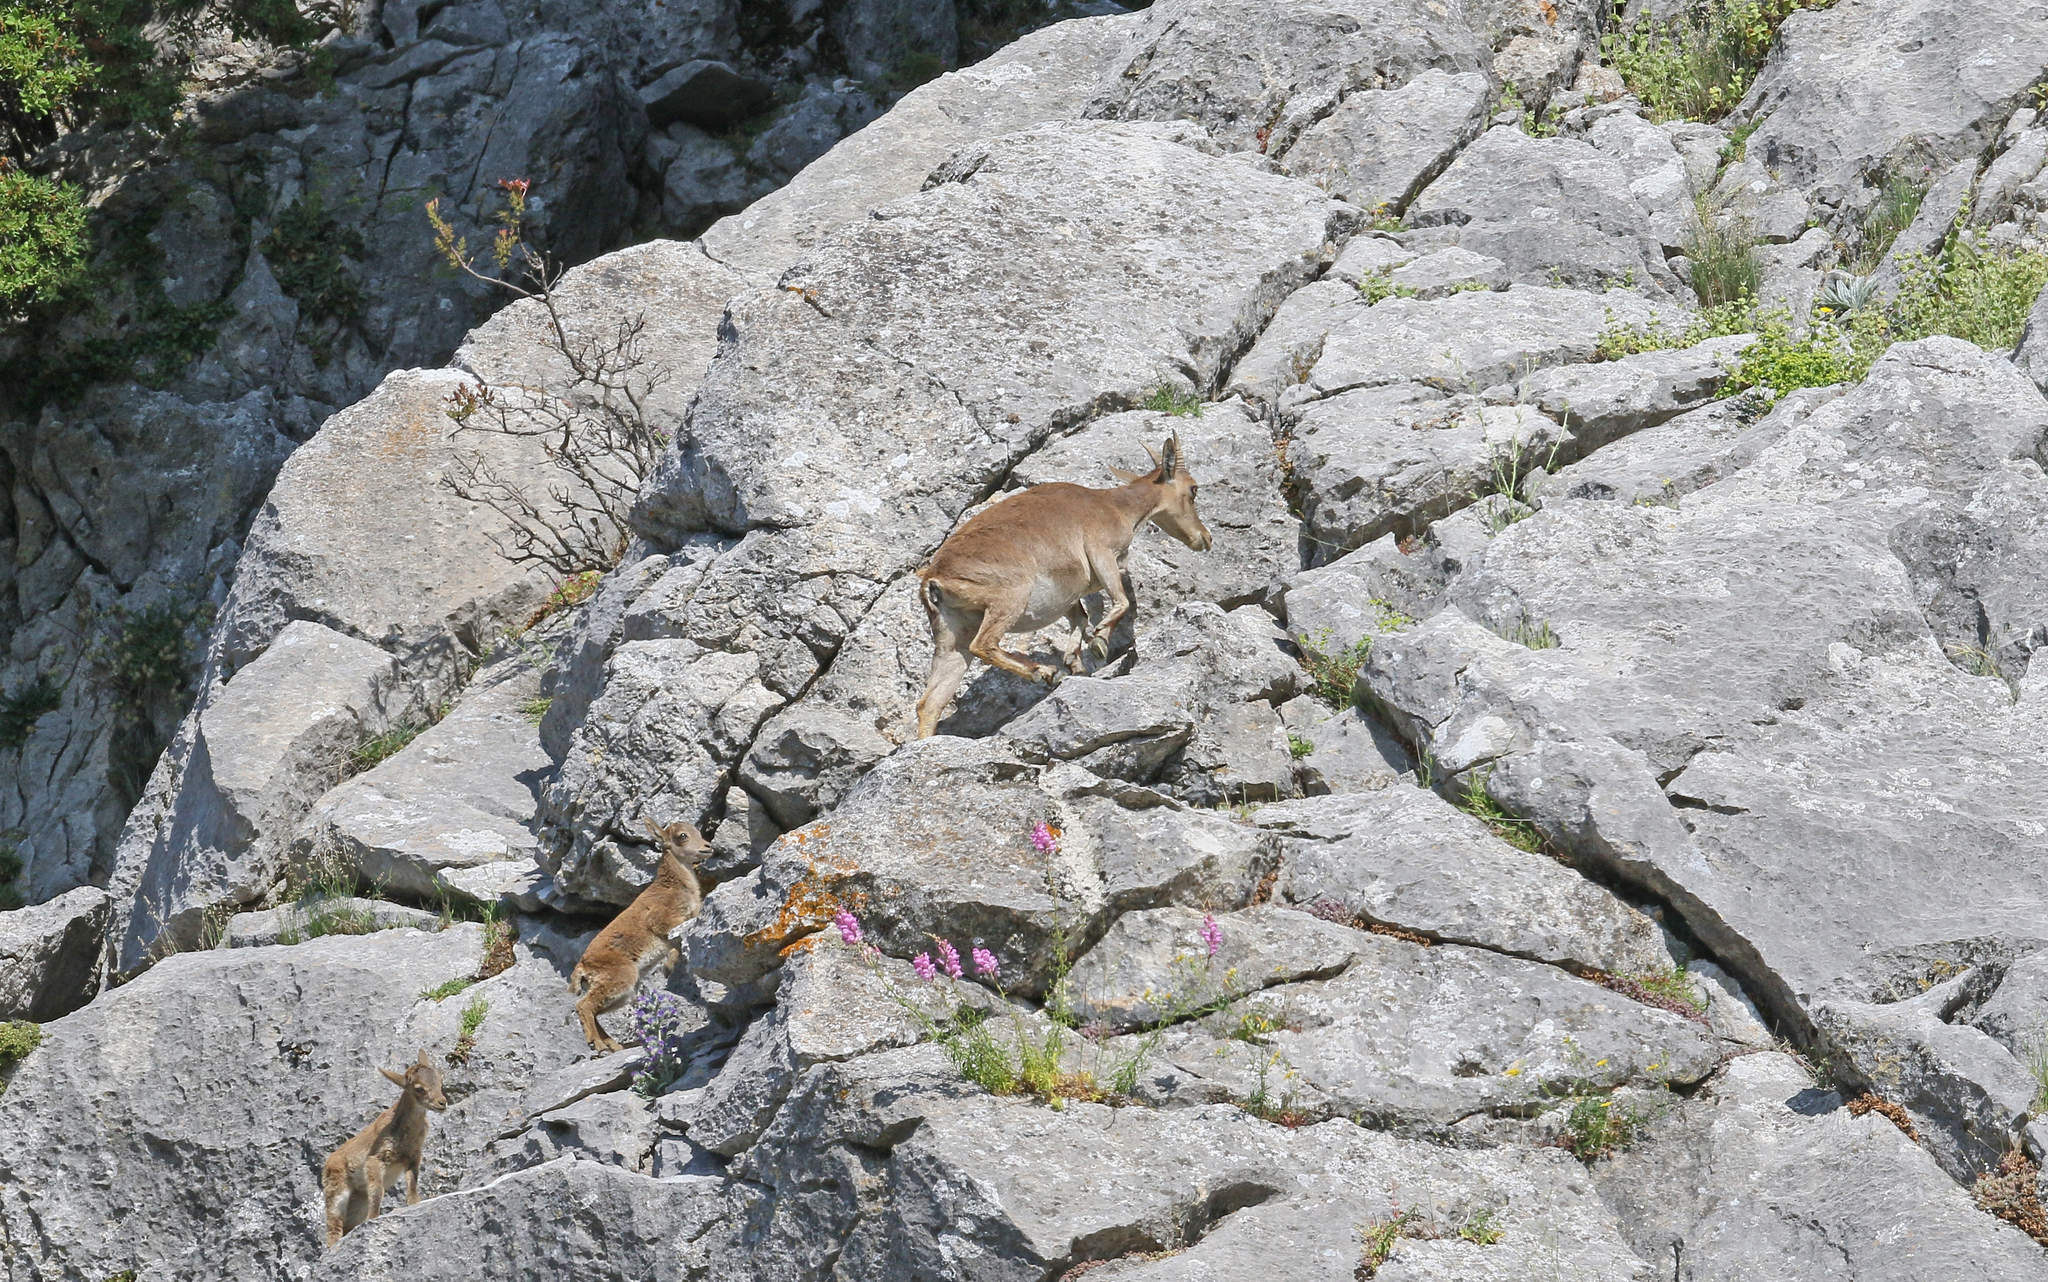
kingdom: Animalia
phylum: Chordata
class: Mammalia
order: Artiodactyla
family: Bovidae
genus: Capra
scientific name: Capra pyrenaica
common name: Spanish ibex
